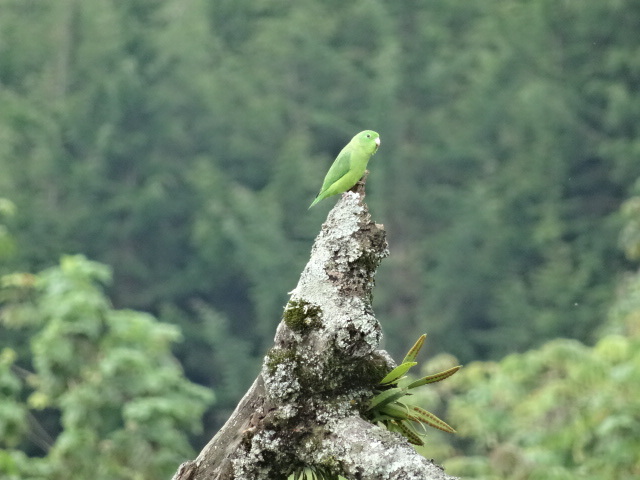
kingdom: Animalia
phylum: Chordata
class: Aves
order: Psittaciformes
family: Psittacidae
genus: Forpus
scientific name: Forpus conspicillatus
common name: Spectacled parrotlet
